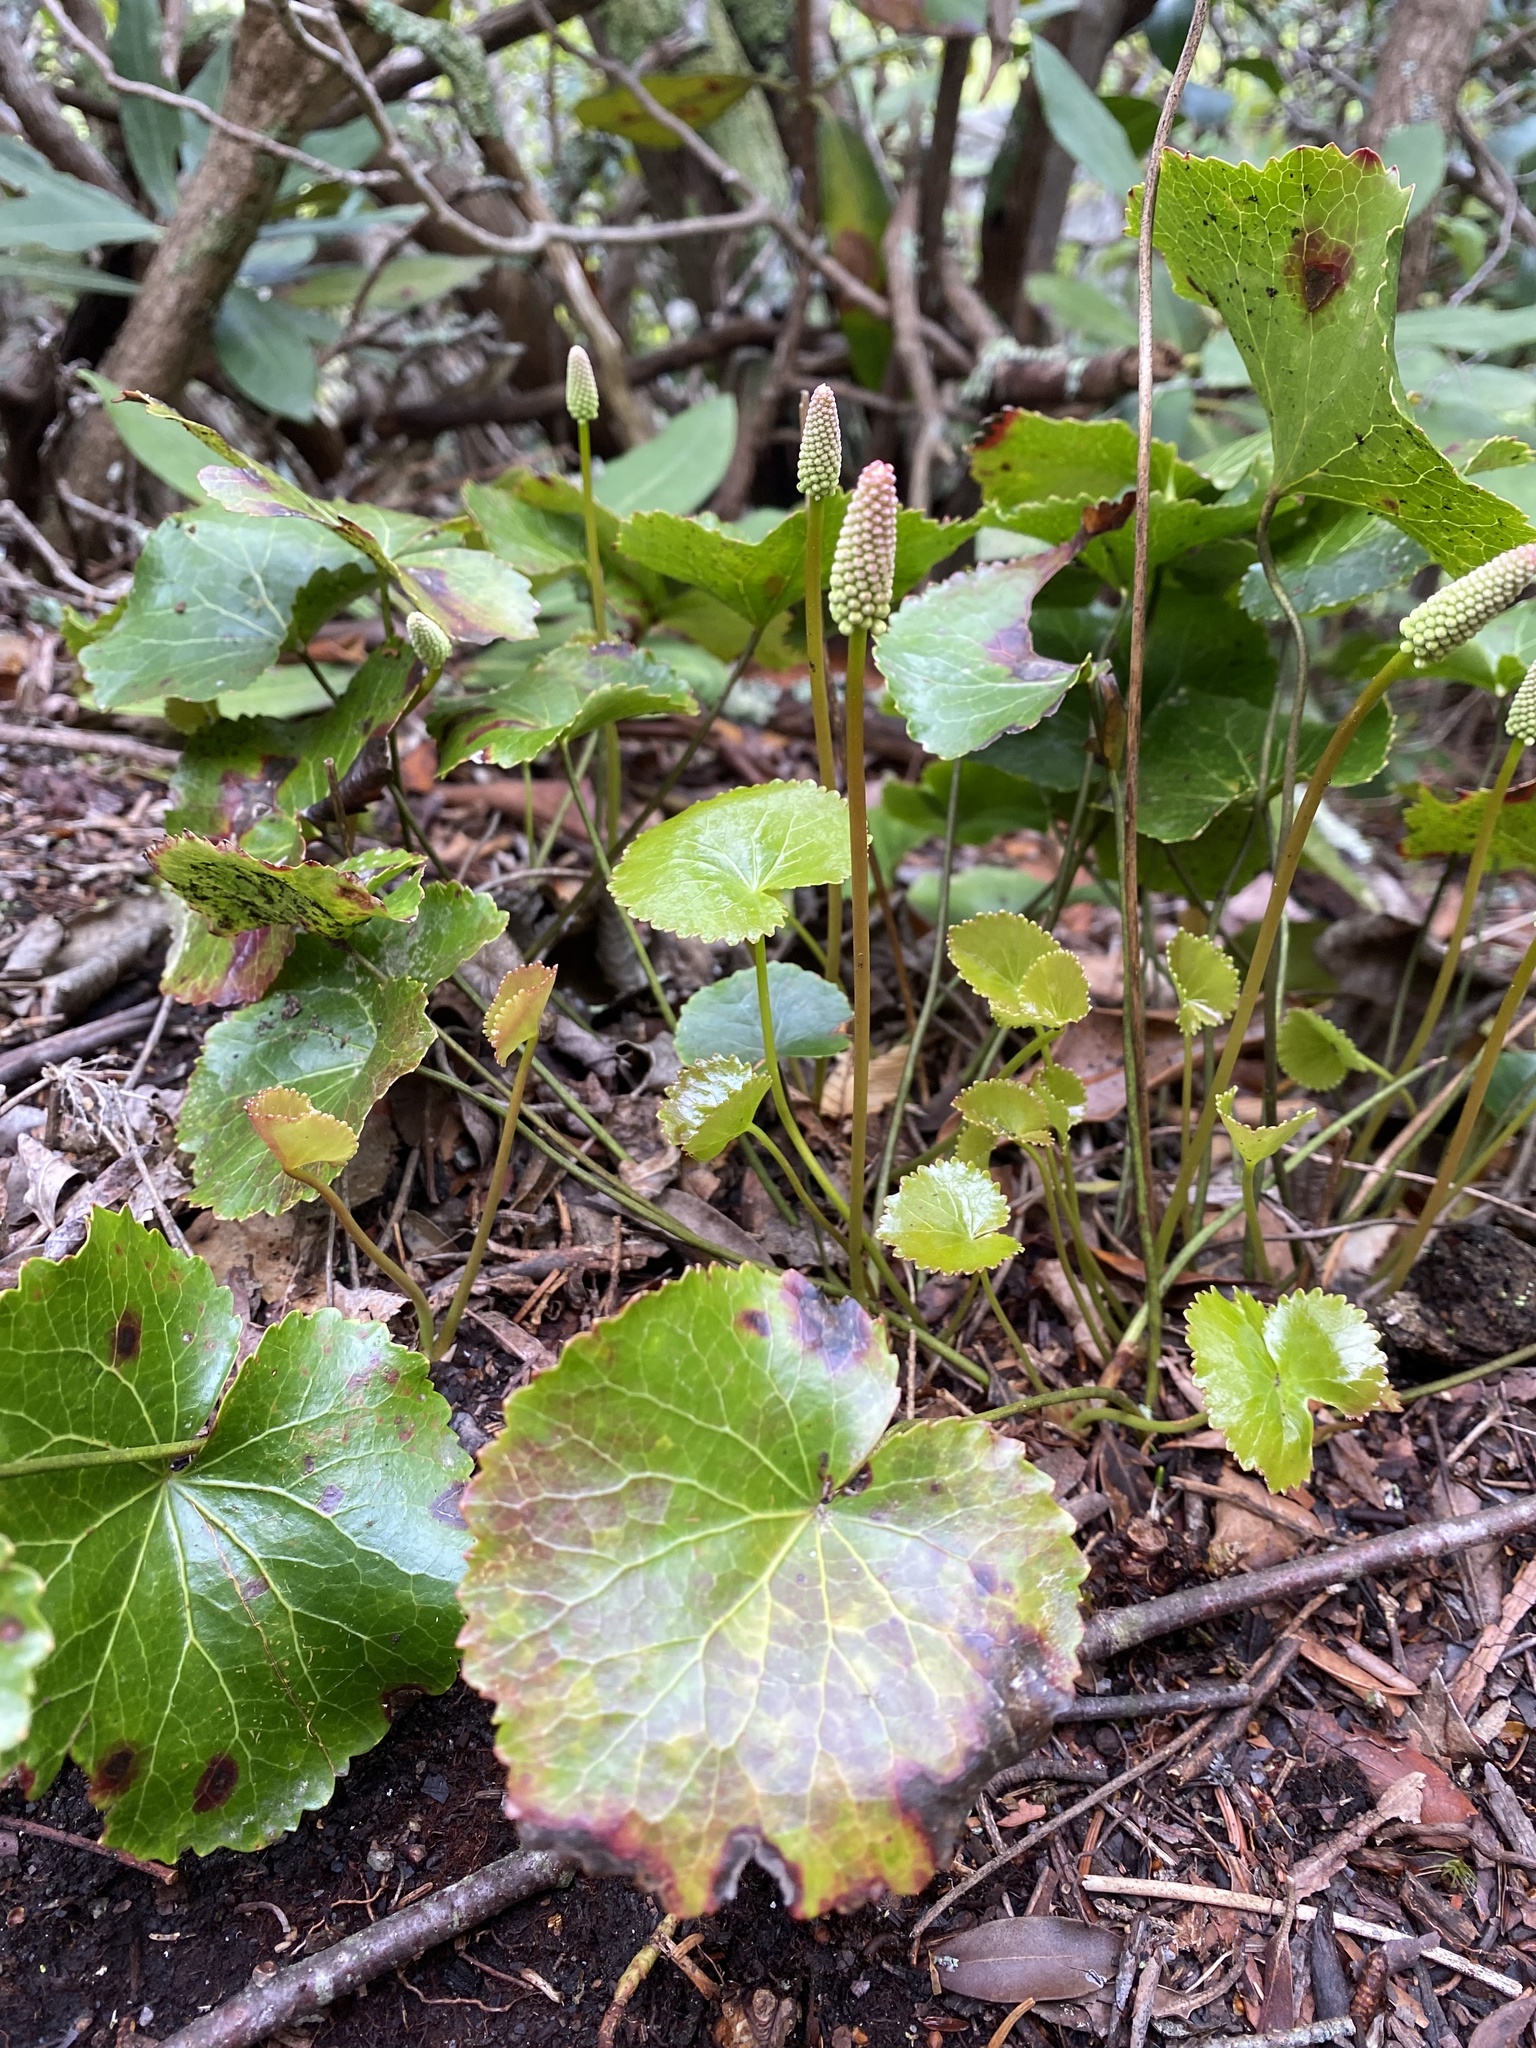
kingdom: Plantae
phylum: Tracheophyta
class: Magnoliopsida
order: Ericales
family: Diapensiaceae
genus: Galax
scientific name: Galax urceolata
